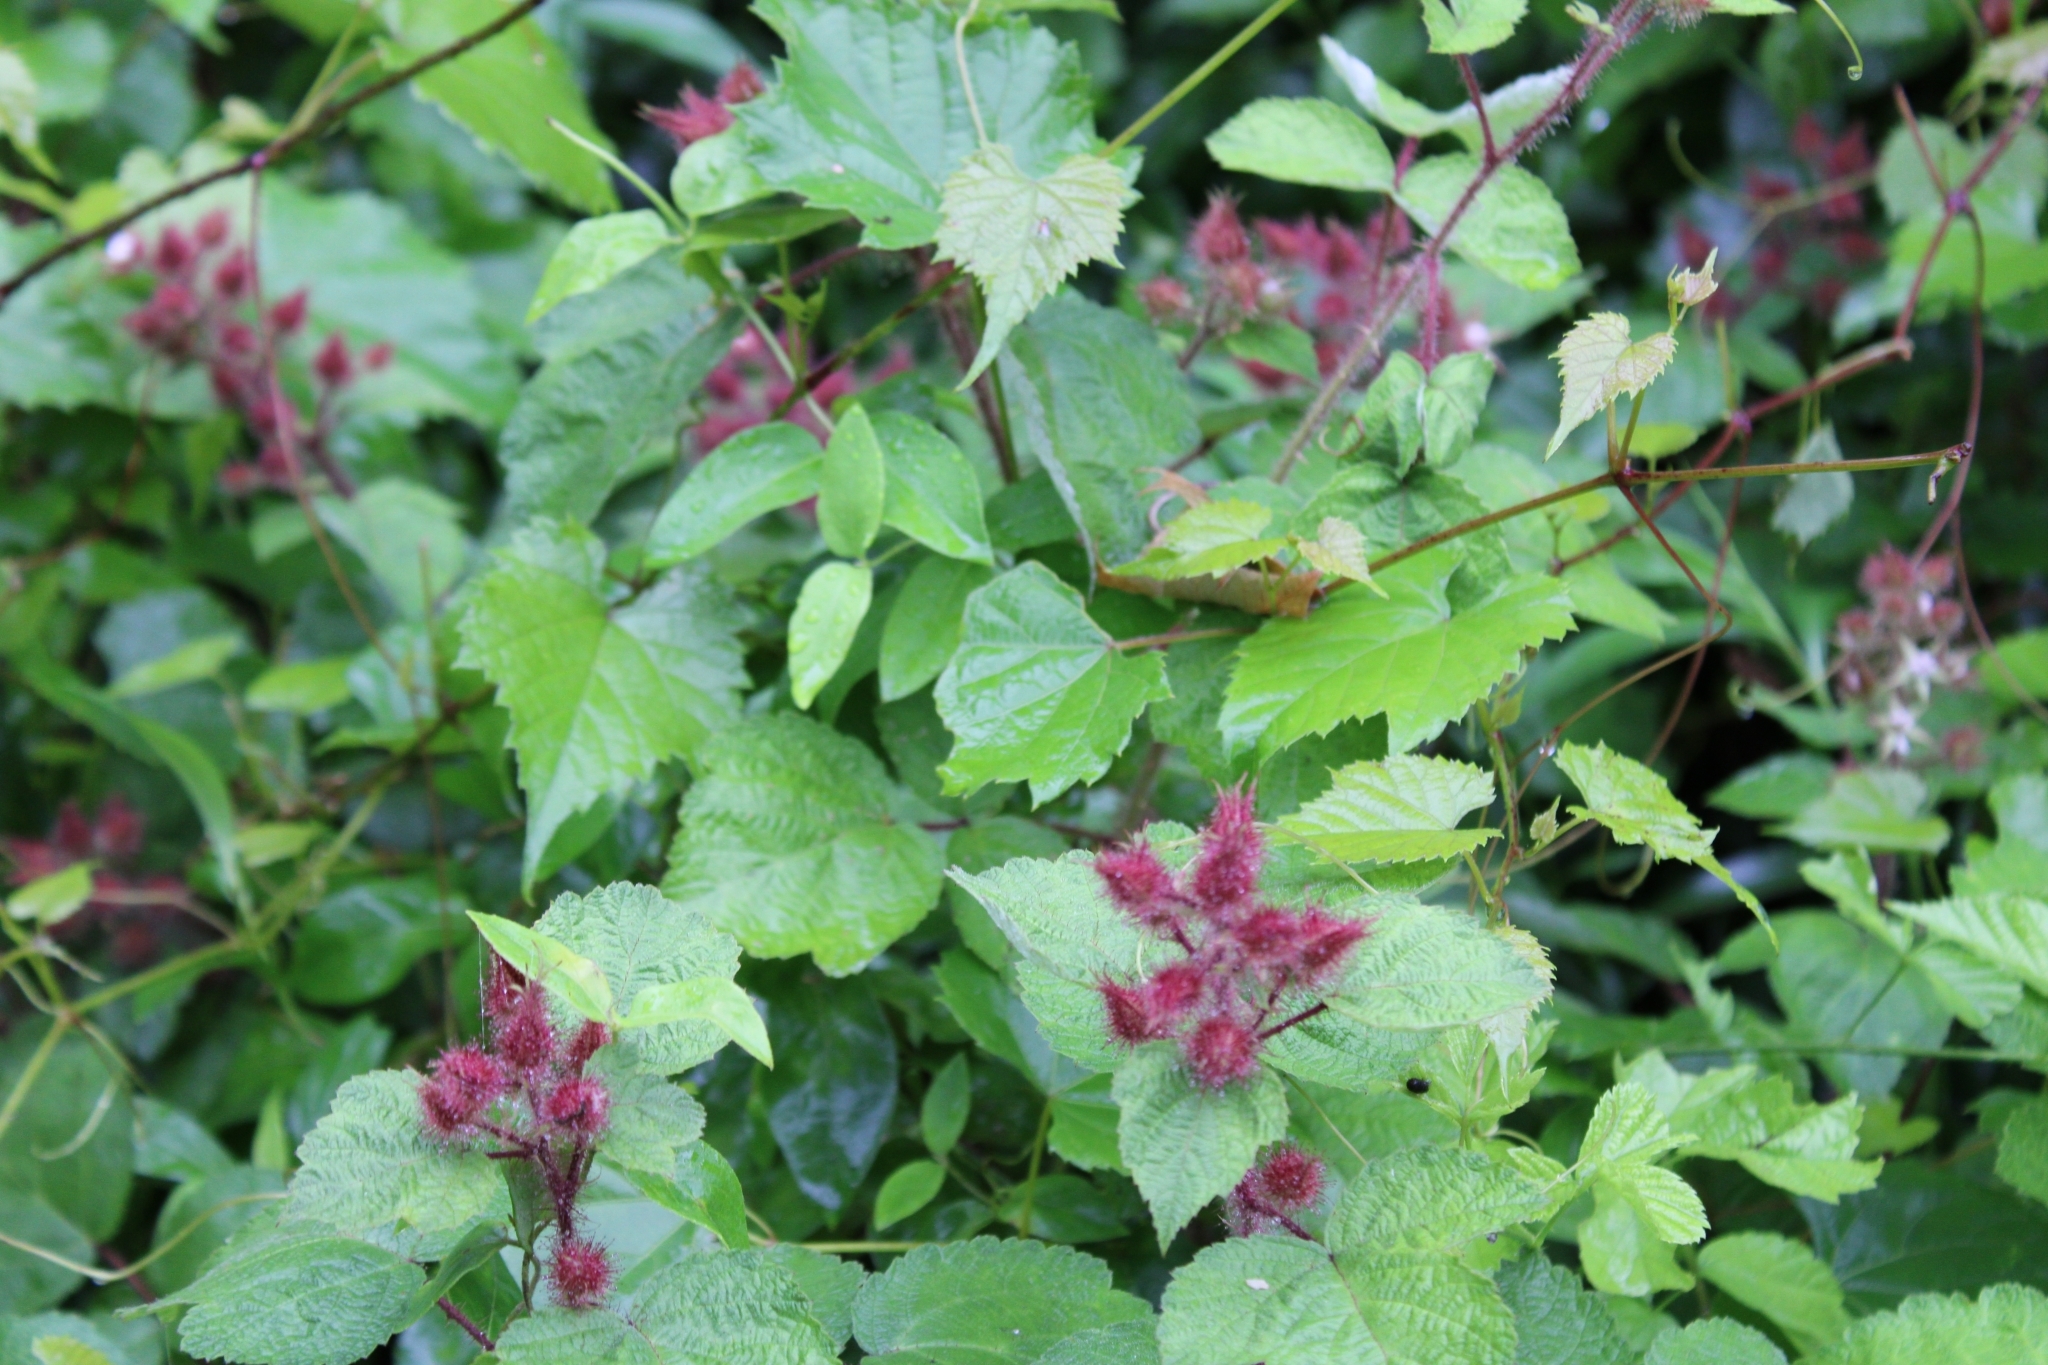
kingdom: Plantae
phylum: Tracheophyta
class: Magnoliopsida
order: Rosales
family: Rosaceae
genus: Rubus
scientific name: Rubus phoenicolasius
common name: Japanese wineberry
